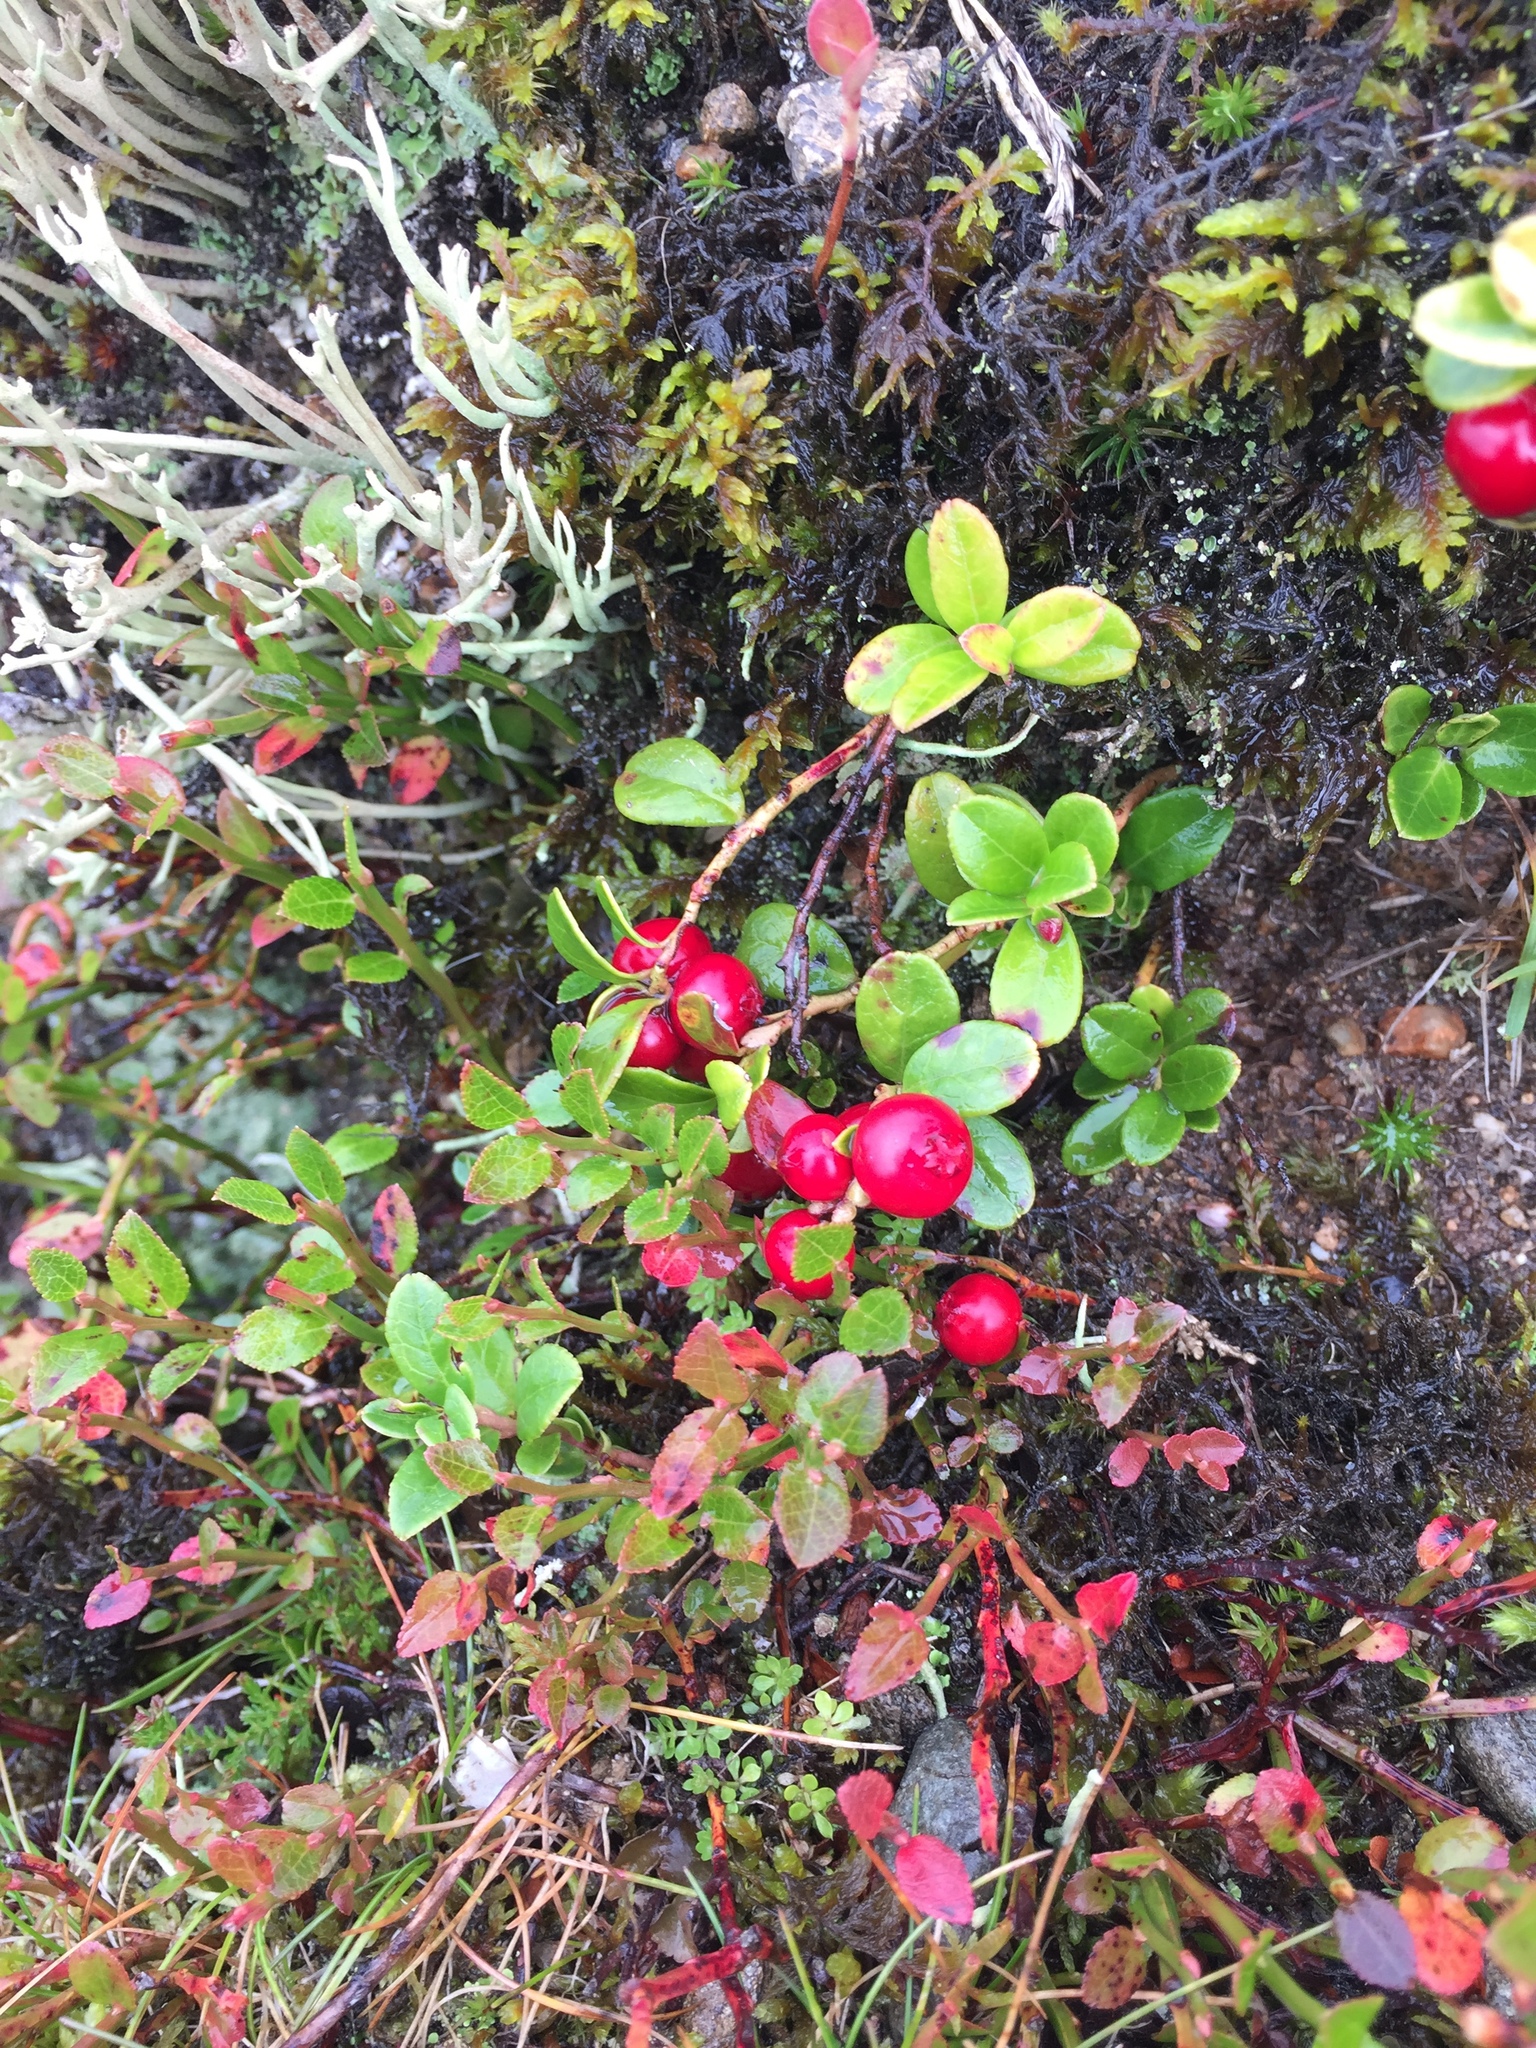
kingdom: Plantae
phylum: Tracheophyta
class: Magnoliopsida
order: Ericales
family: Ericaceae
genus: Vaccinium
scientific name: Vaccinium vitis-idaea
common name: Cowberry
